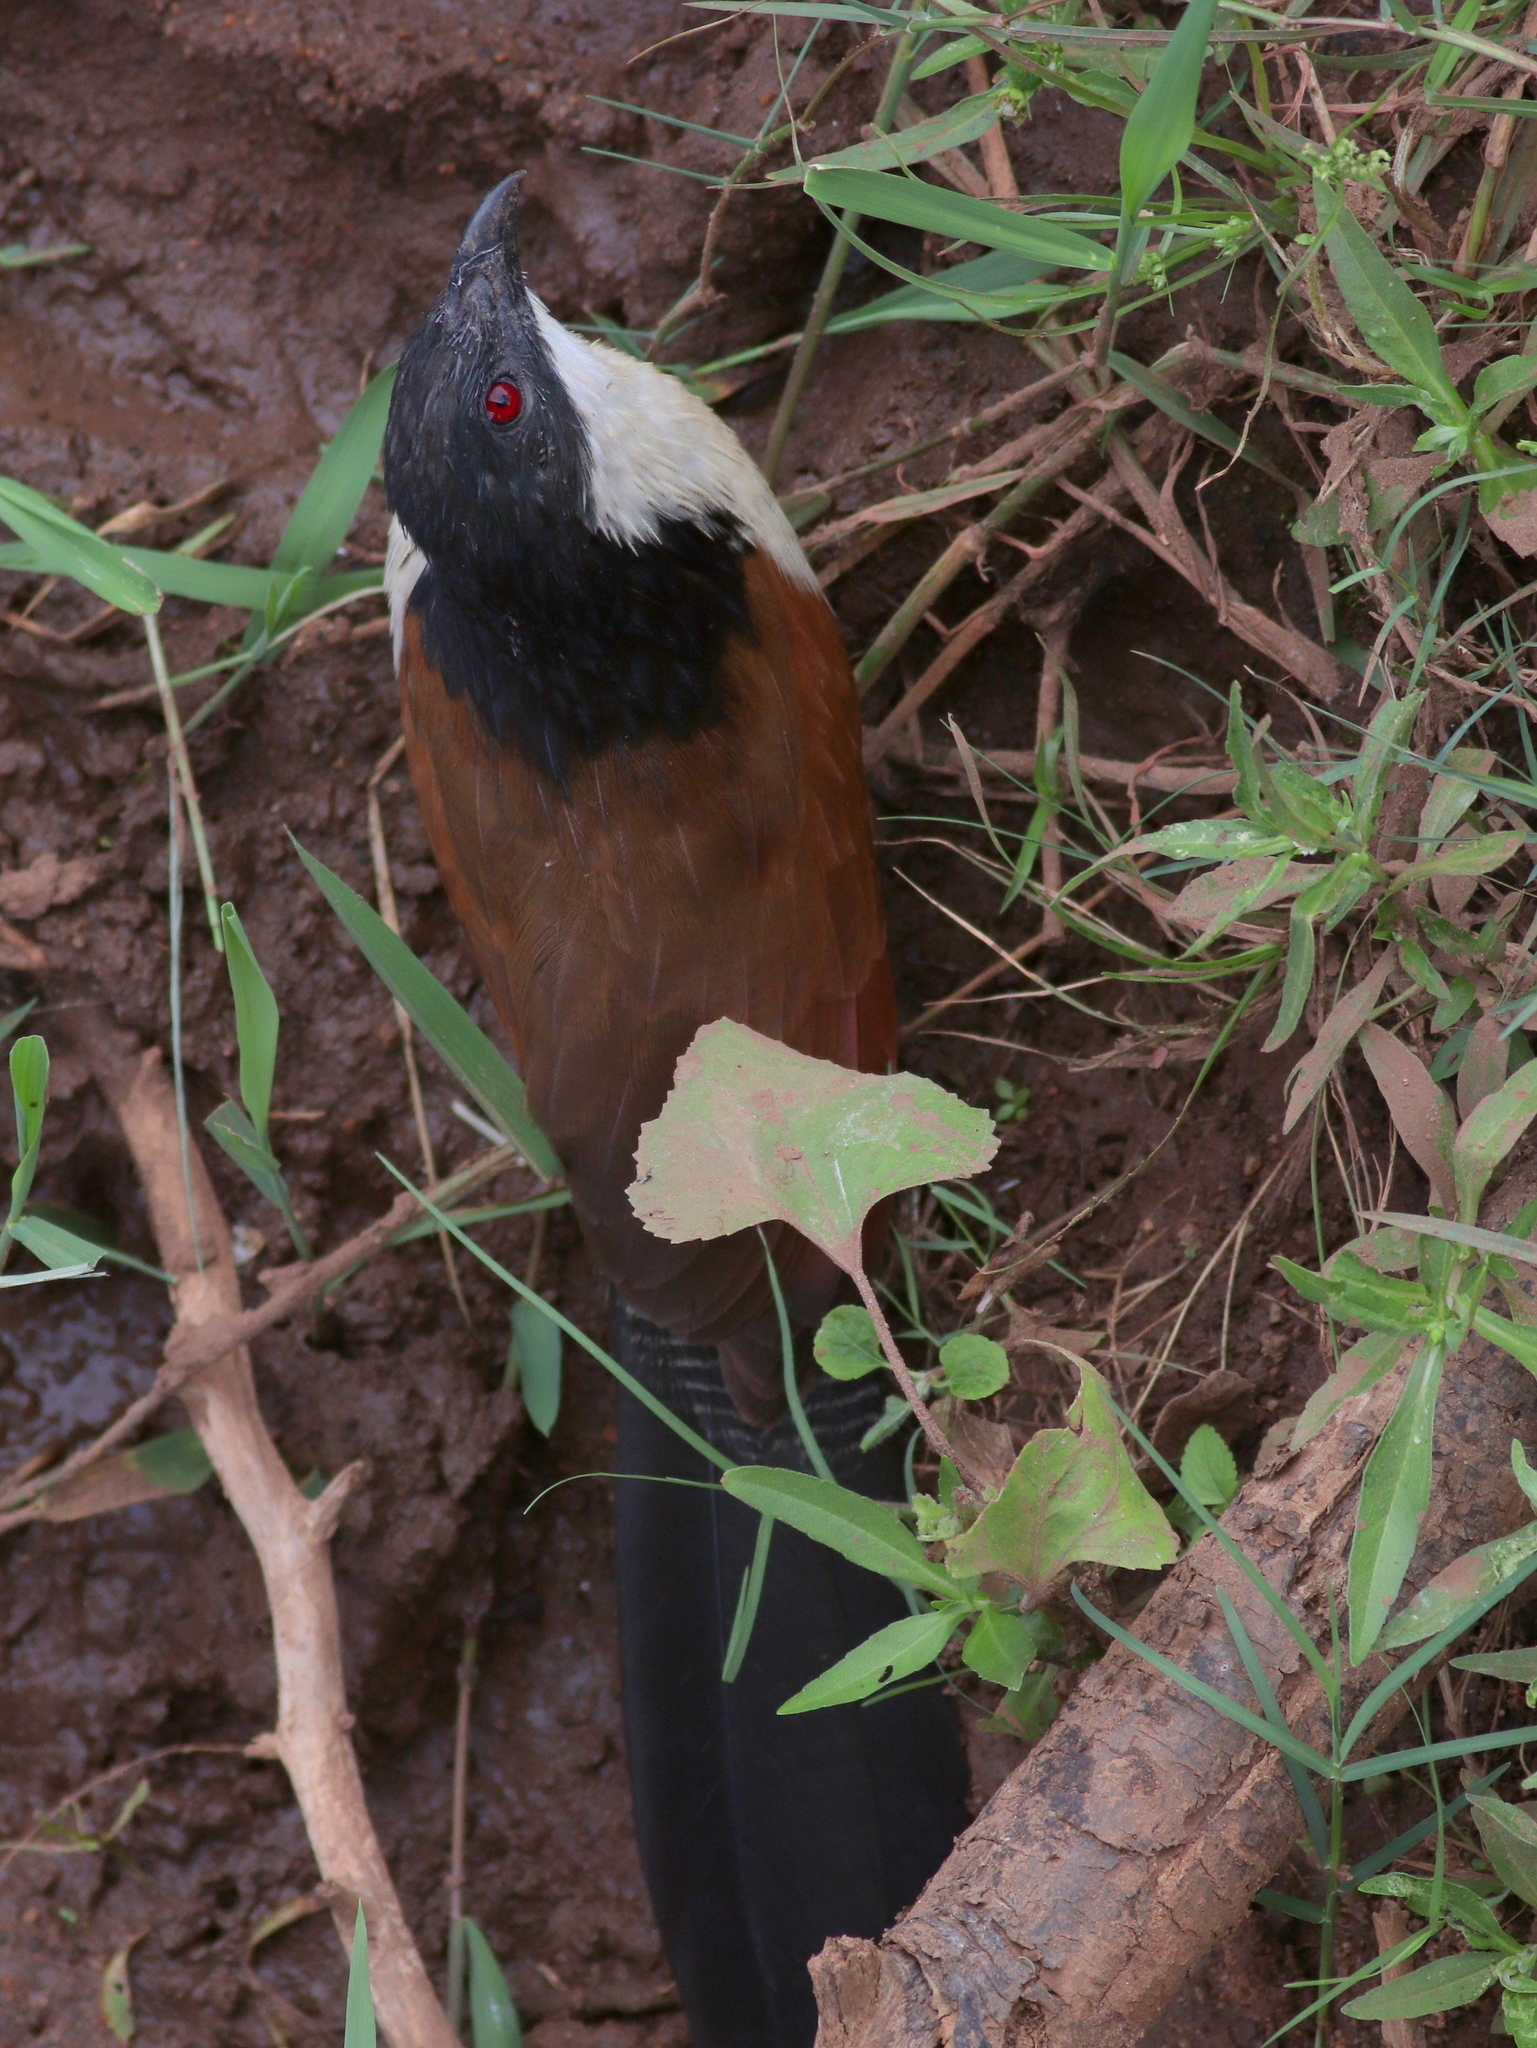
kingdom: Animalia
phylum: Chordata
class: Aves
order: Cuculiformes
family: Cuculidae
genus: Centropus
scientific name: Centropus superciliosus
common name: White-browed coucal
